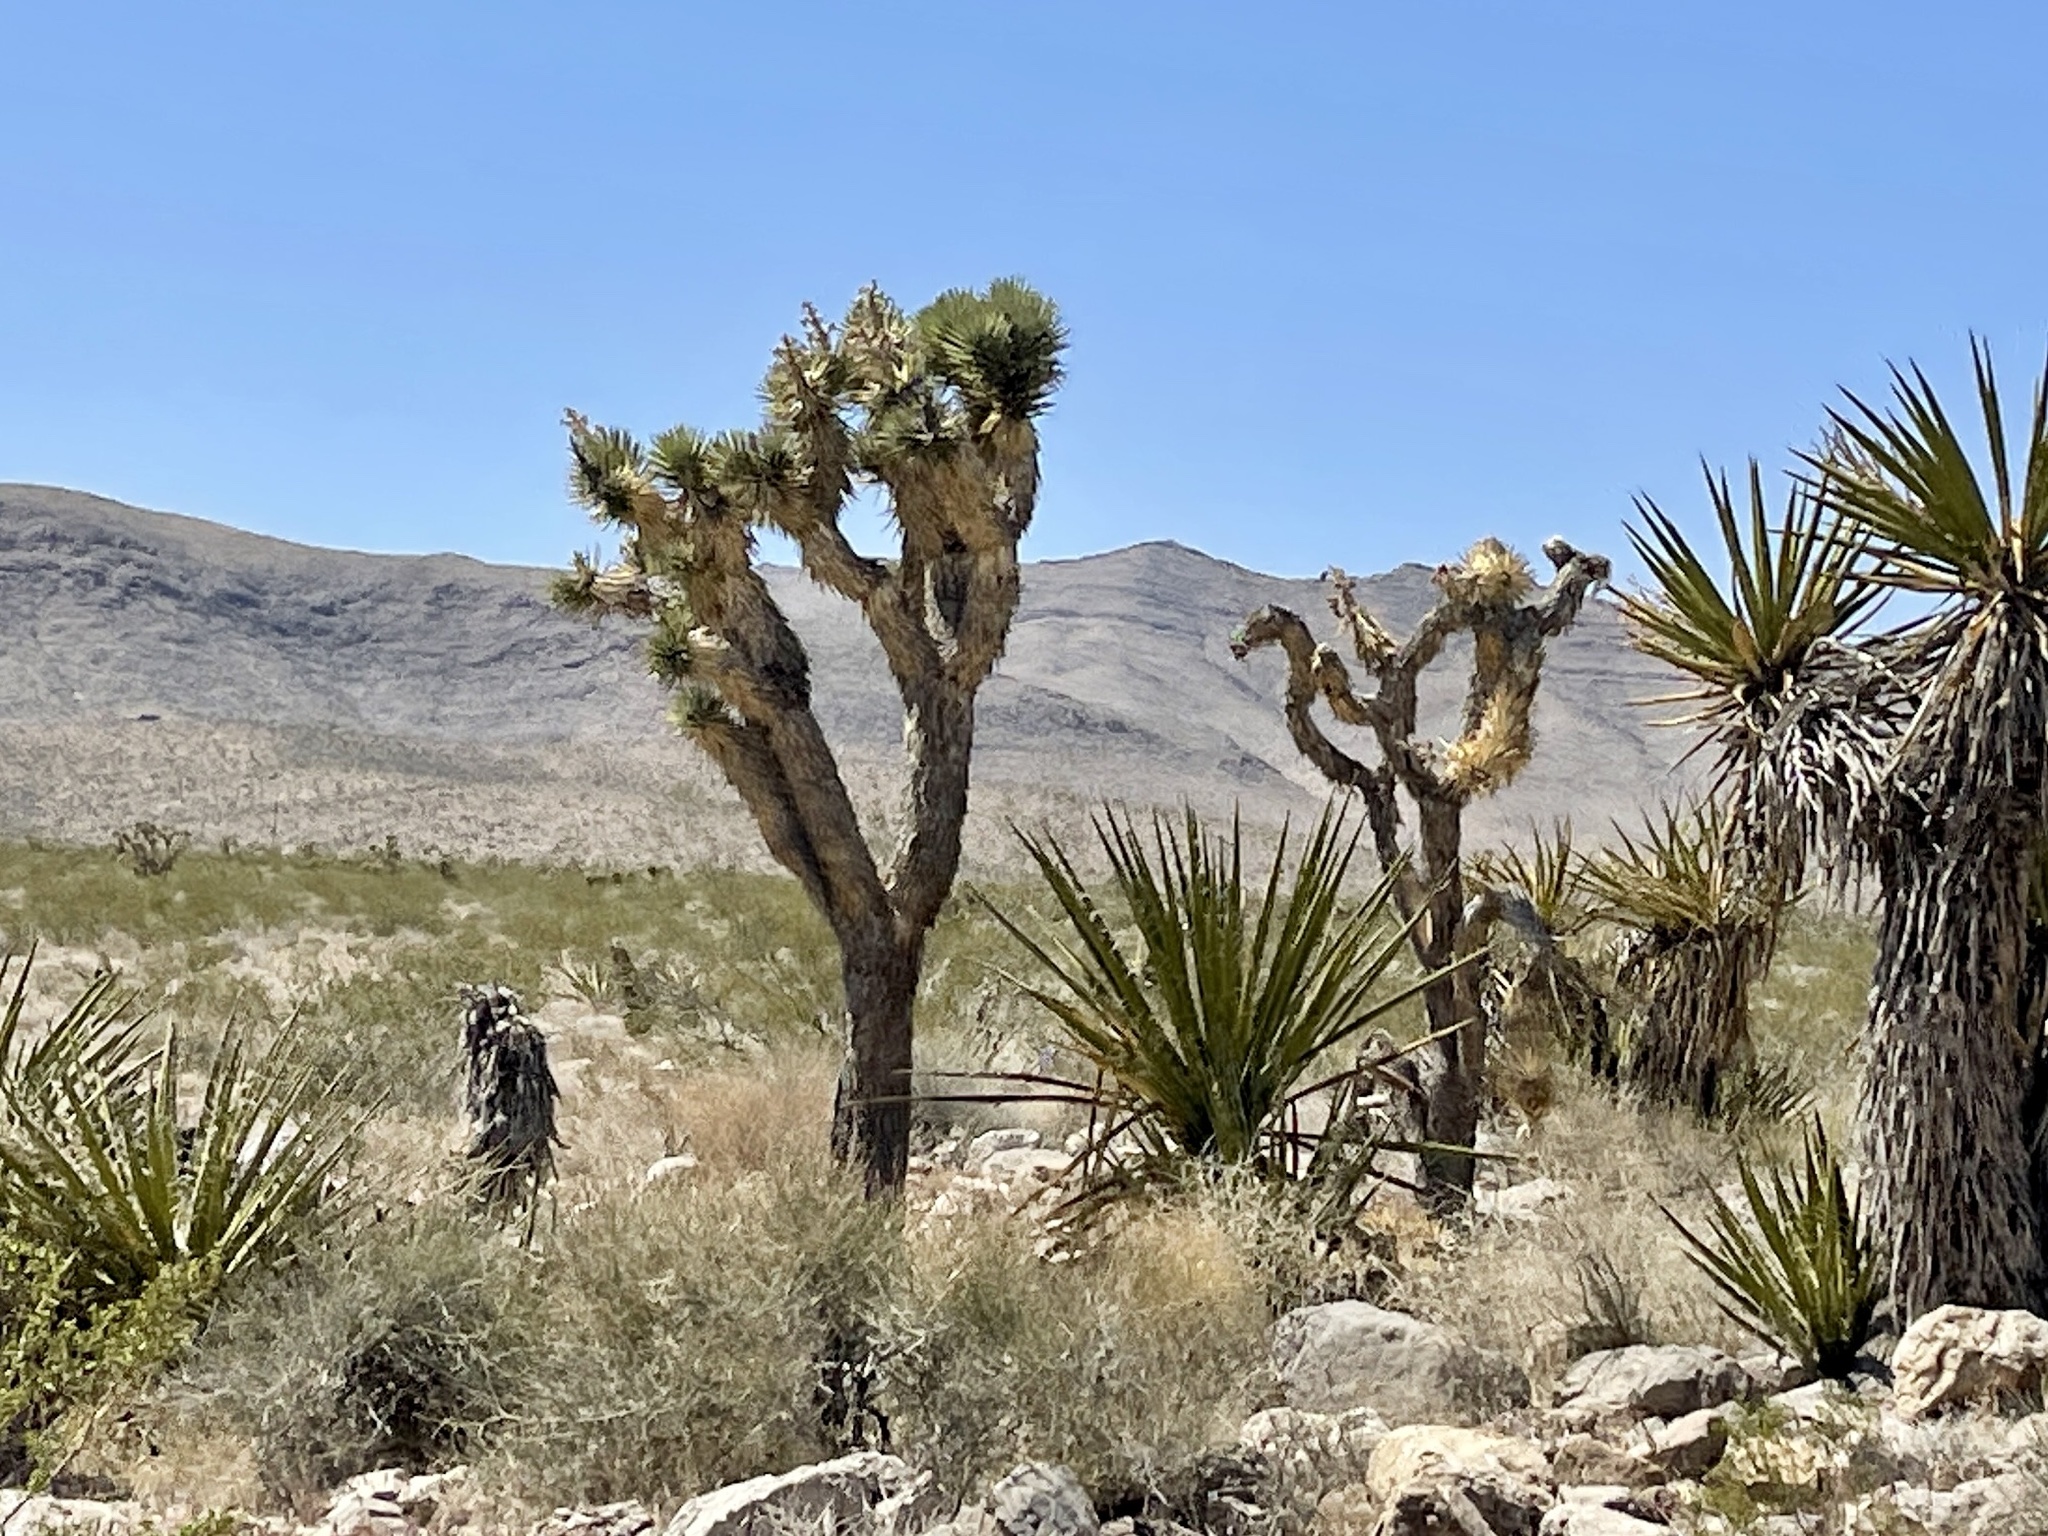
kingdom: Plantae
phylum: Tracheophyta
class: Liliopsida
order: Asparagales
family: Asparagaceae
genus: Yucca
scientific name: Yucca brevifolia
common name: Joshua tree
